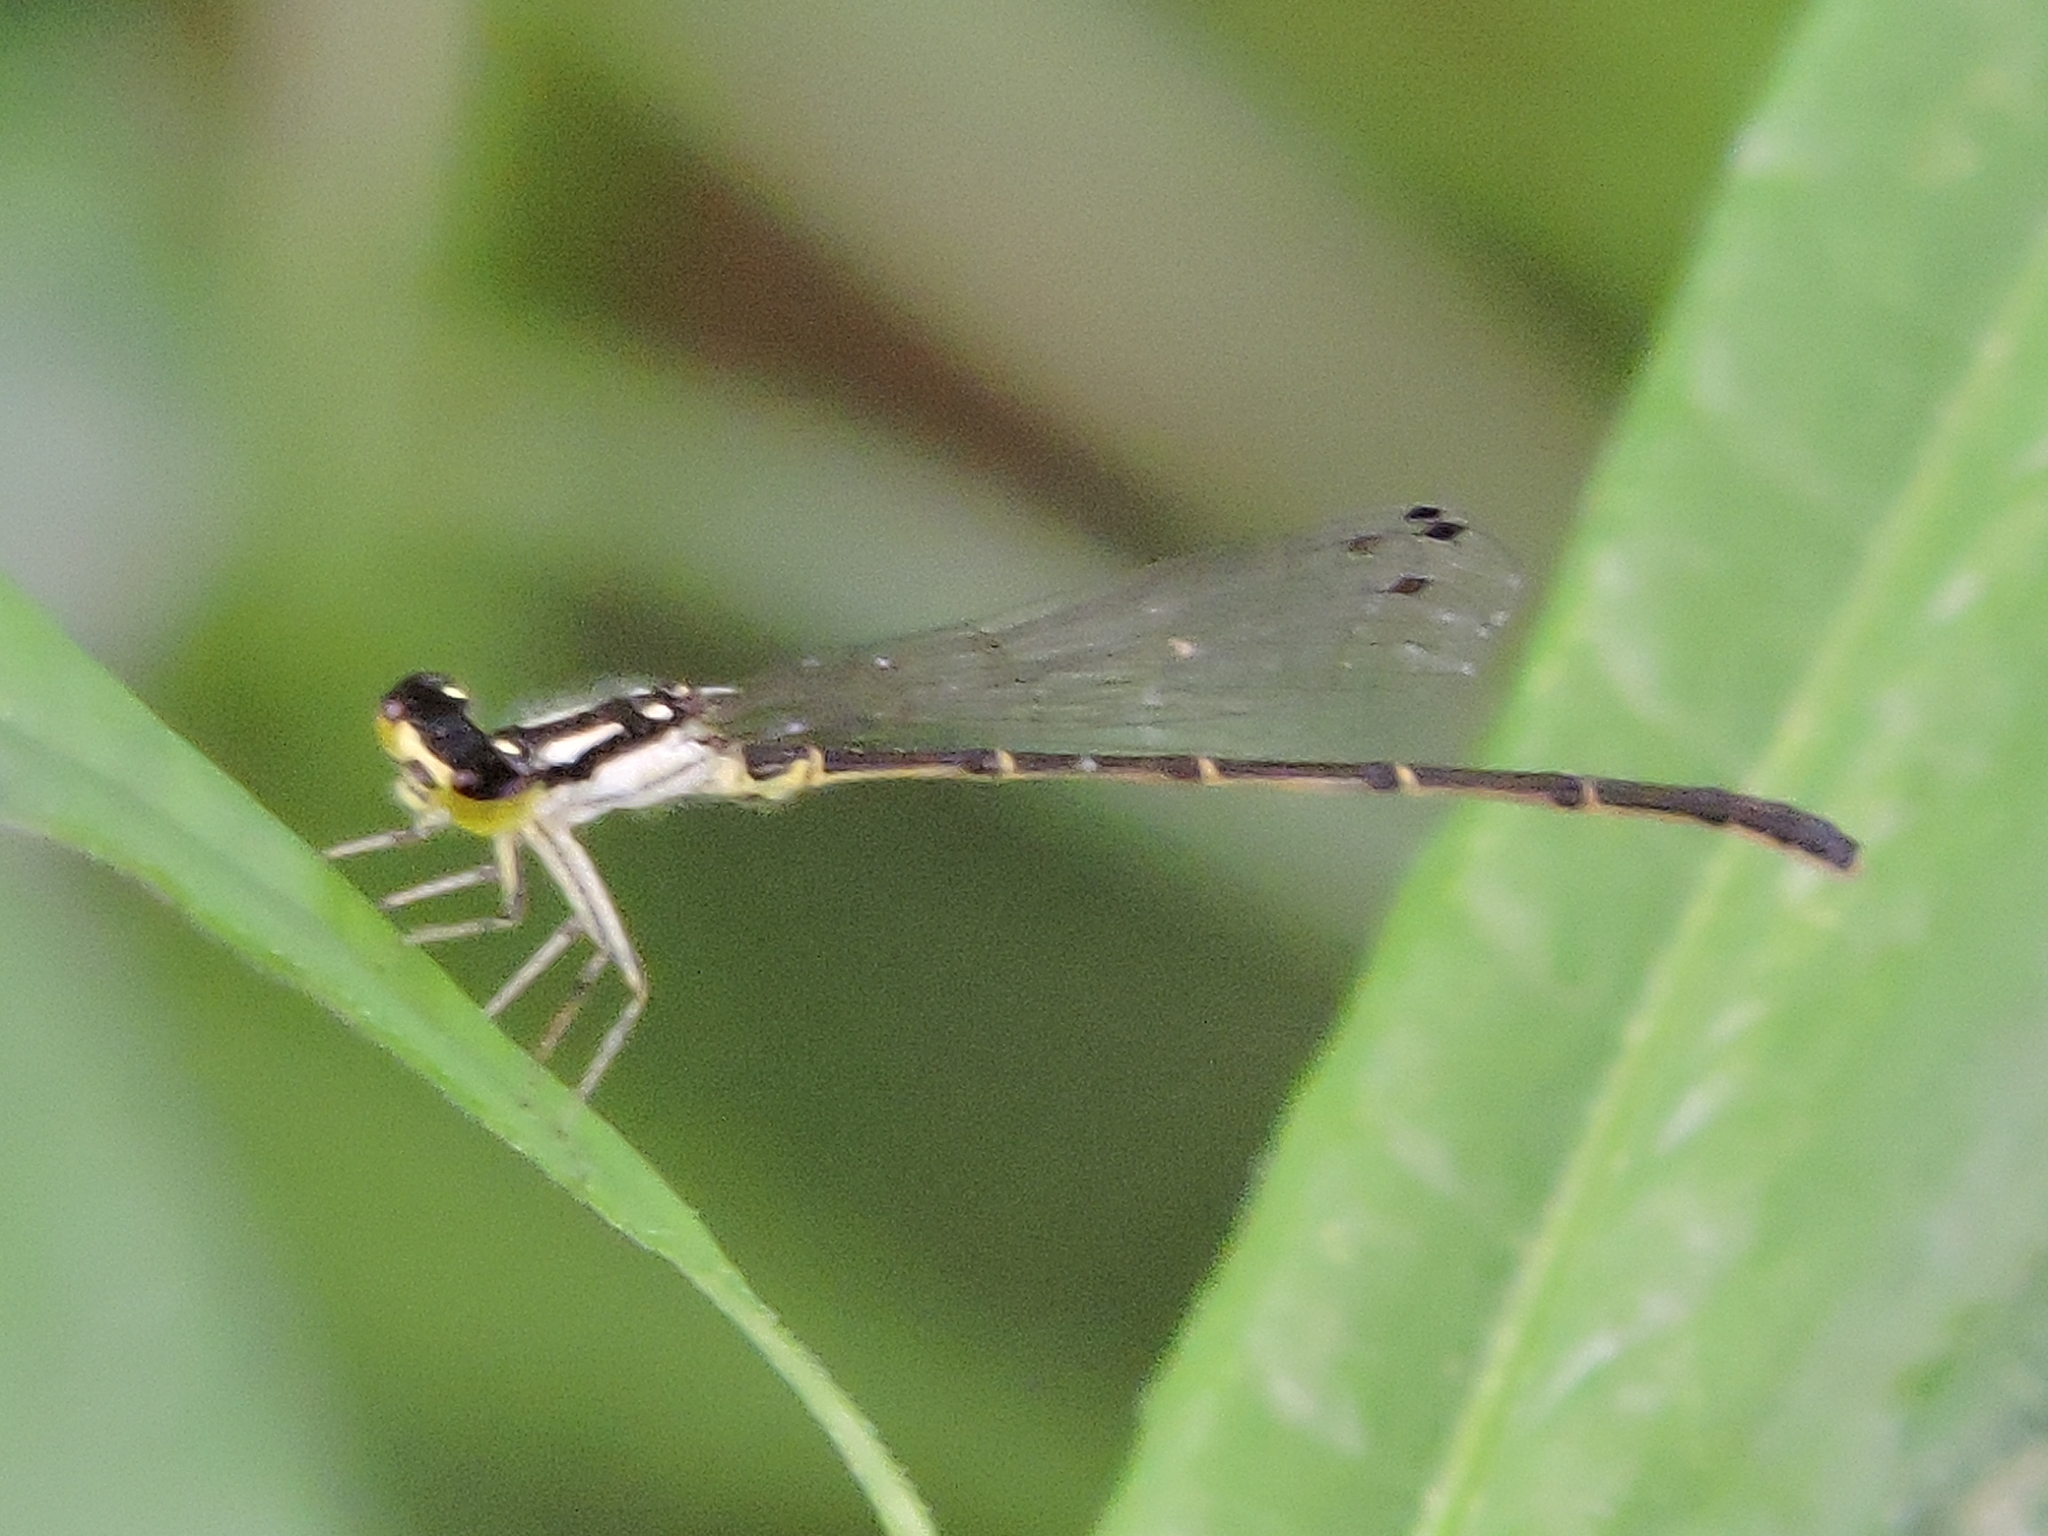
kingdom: Animalia
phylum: Arthropoda
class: Insecta
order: Odonata
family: Coenagrionidae
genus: Ischnura
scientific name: Ischnura posita
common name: Fragile forktail
